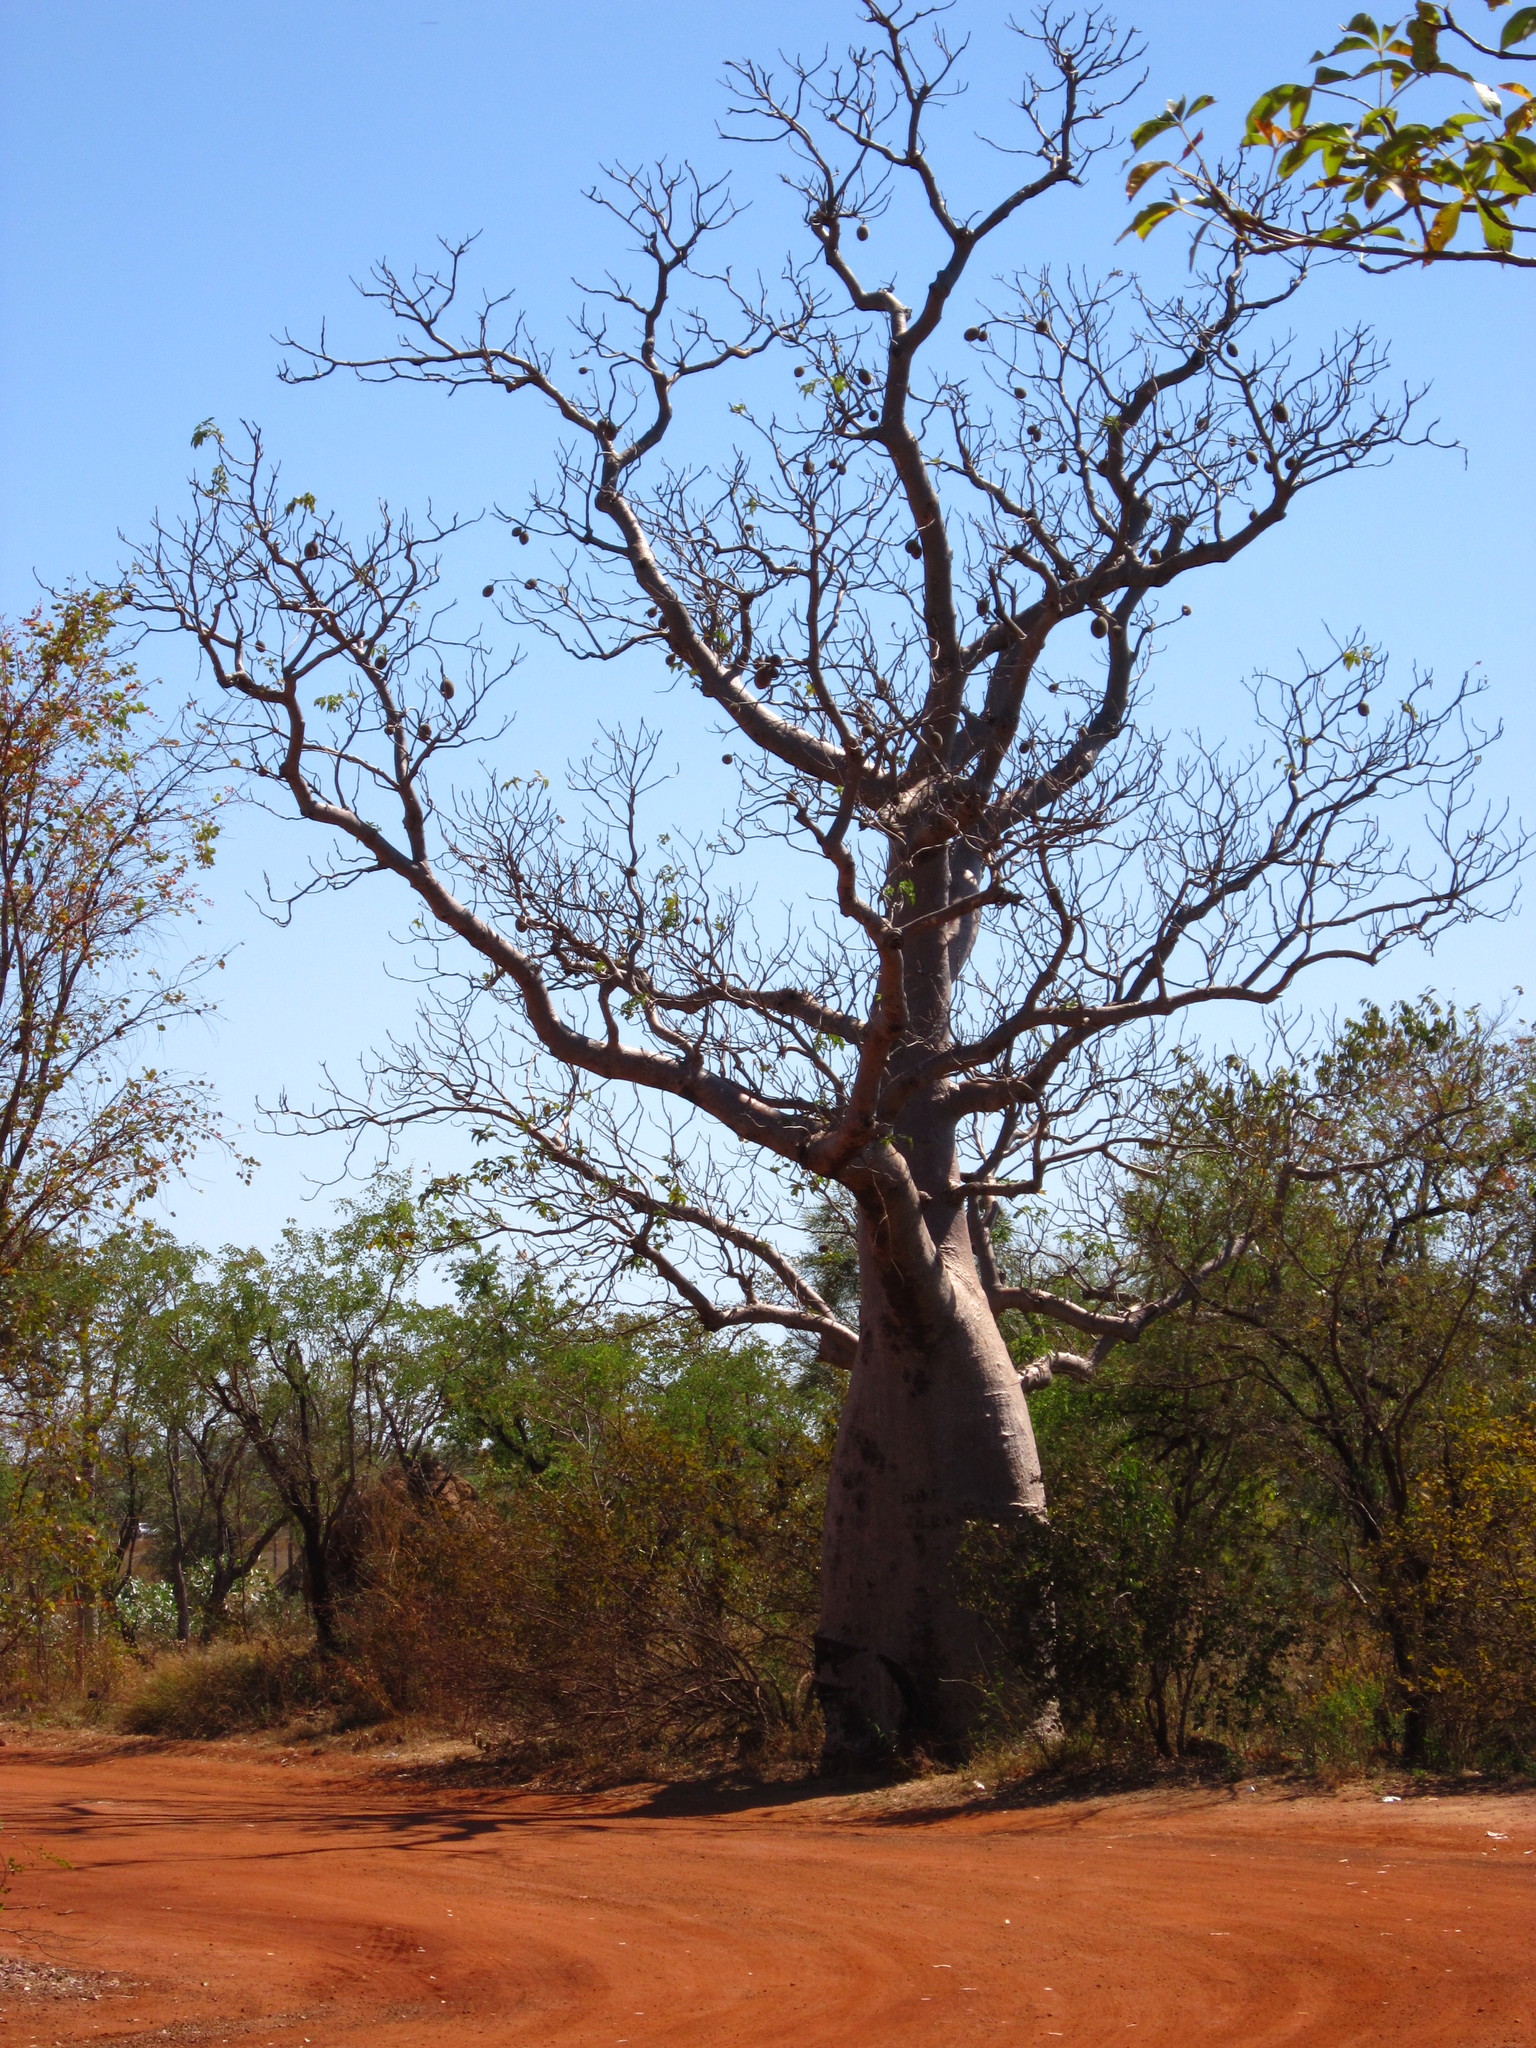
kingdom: Plantae
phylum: Tracheophyta
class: Magnoliopsida
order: Malvales
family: Malvaceae
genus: Adansonia
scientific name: Adansonia gregorii
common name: Australian baobab
